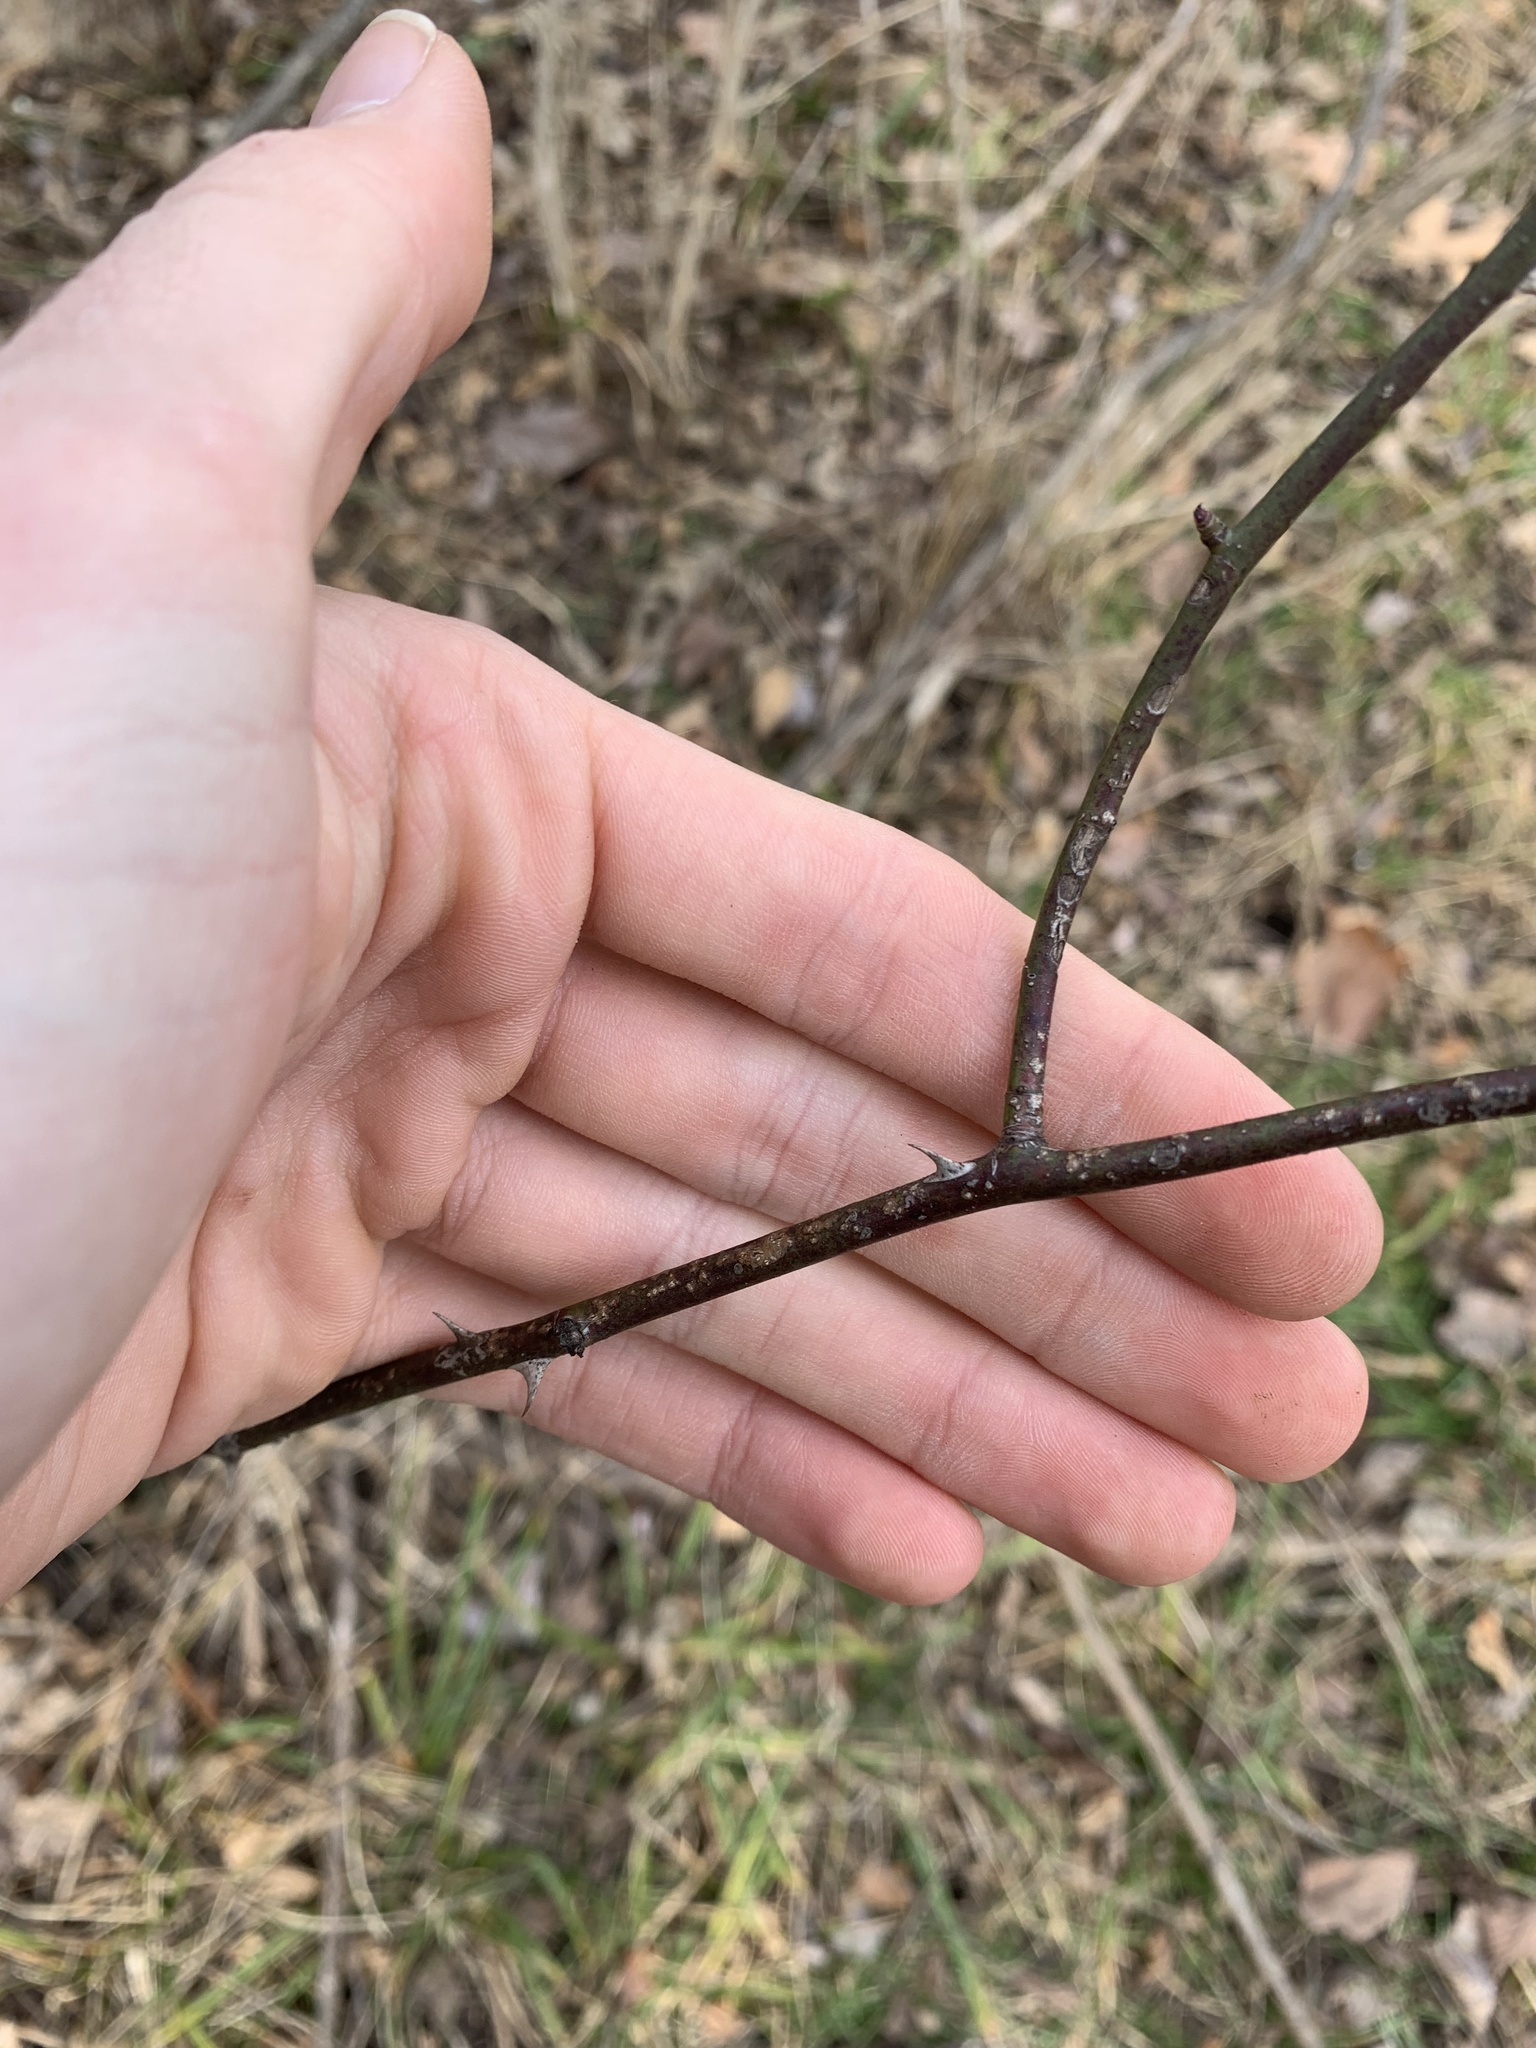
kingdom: Plantae
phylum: Tracheophyta
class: Magnoliopsida
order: Rosales
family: Rosaceae
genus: Rosa
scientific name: Rosa multiflora
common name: Multiflora rose
